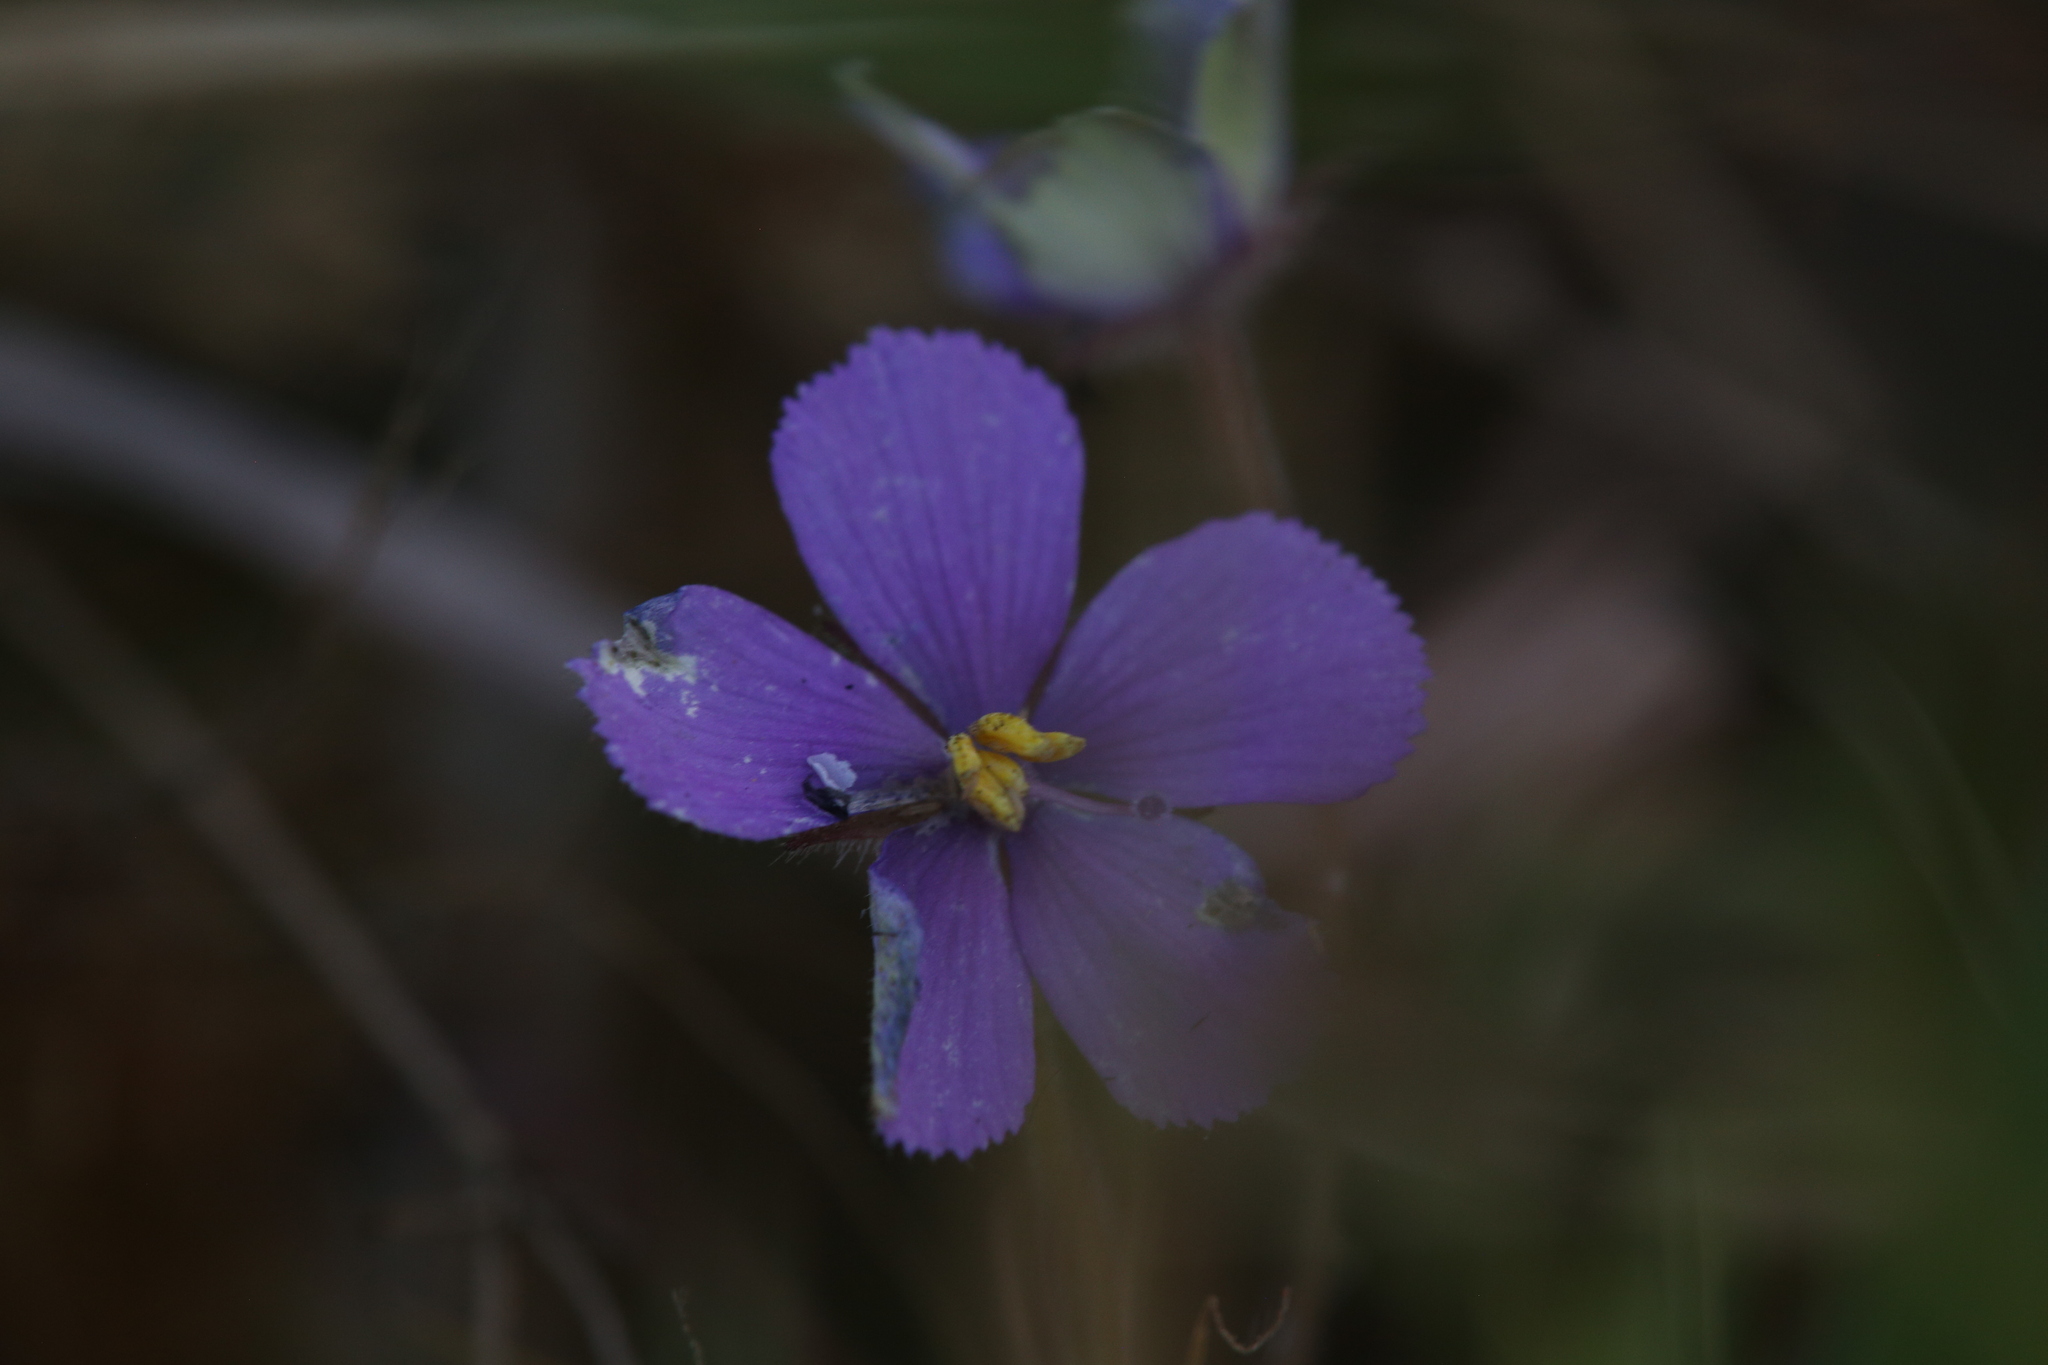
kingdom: Plantae
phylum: Tracheophyta
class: Magnoliopsida
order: Lamiales
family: Byblidaceae
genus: Byblis
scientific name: Byblis filifolia
